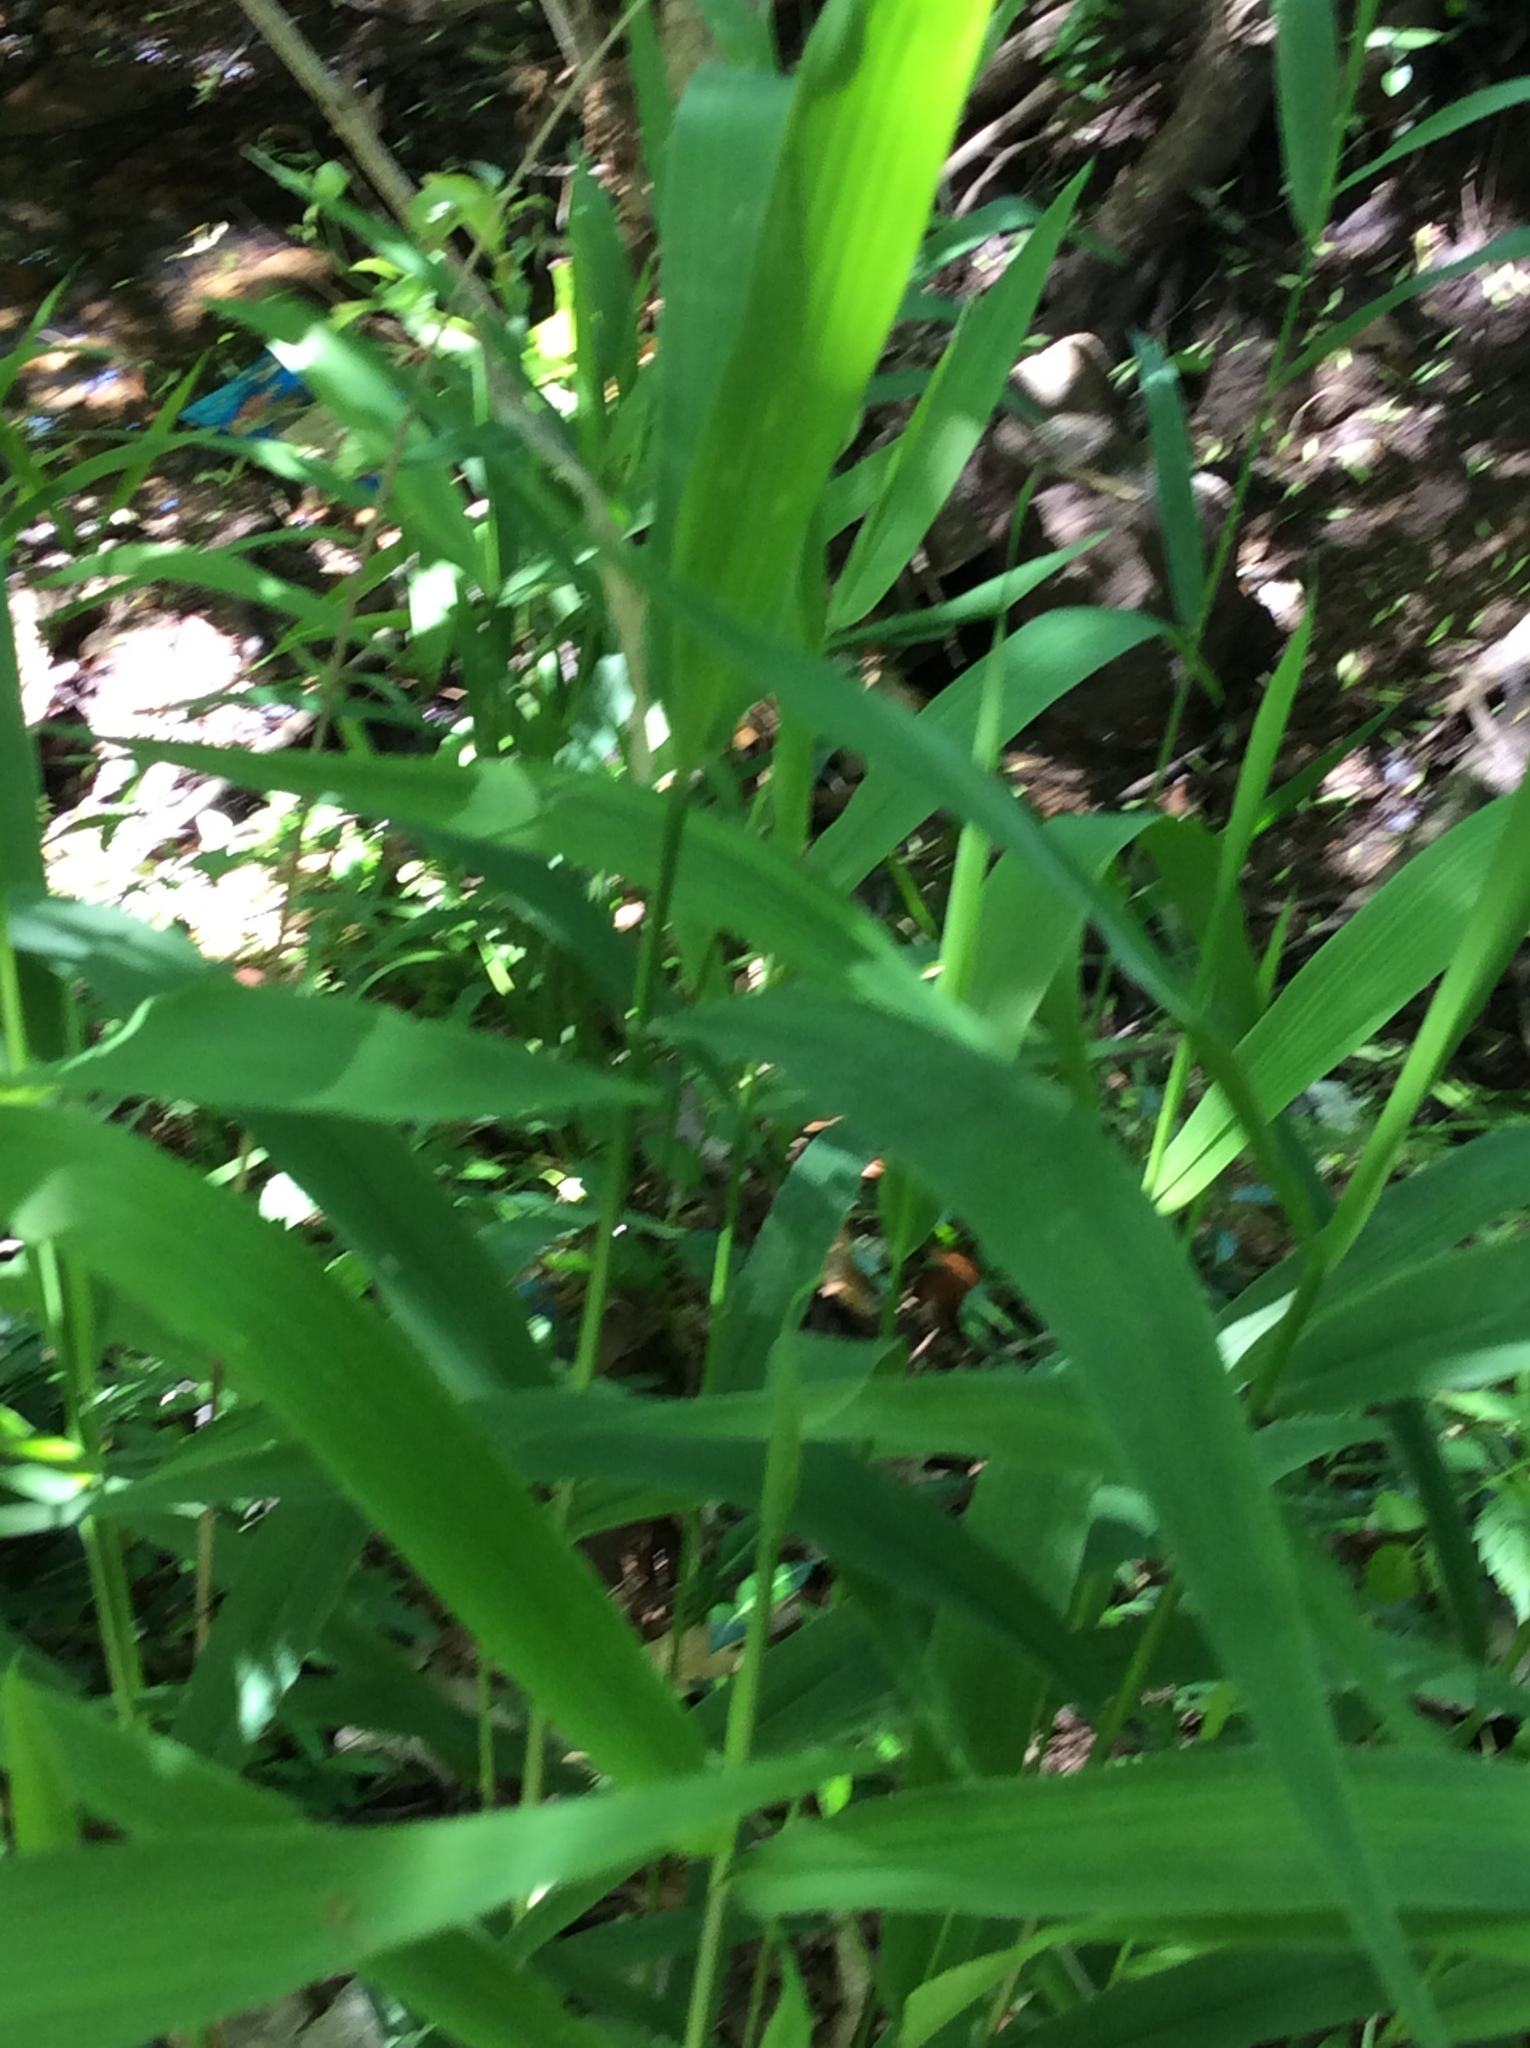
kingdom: Plantae
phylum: Tracheophyta
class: Liliopsida
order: Poales
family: Poaceae
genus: Chasmanthium
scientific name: Chasmanthium latifolium
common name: Broad-leaved chasmanthium
